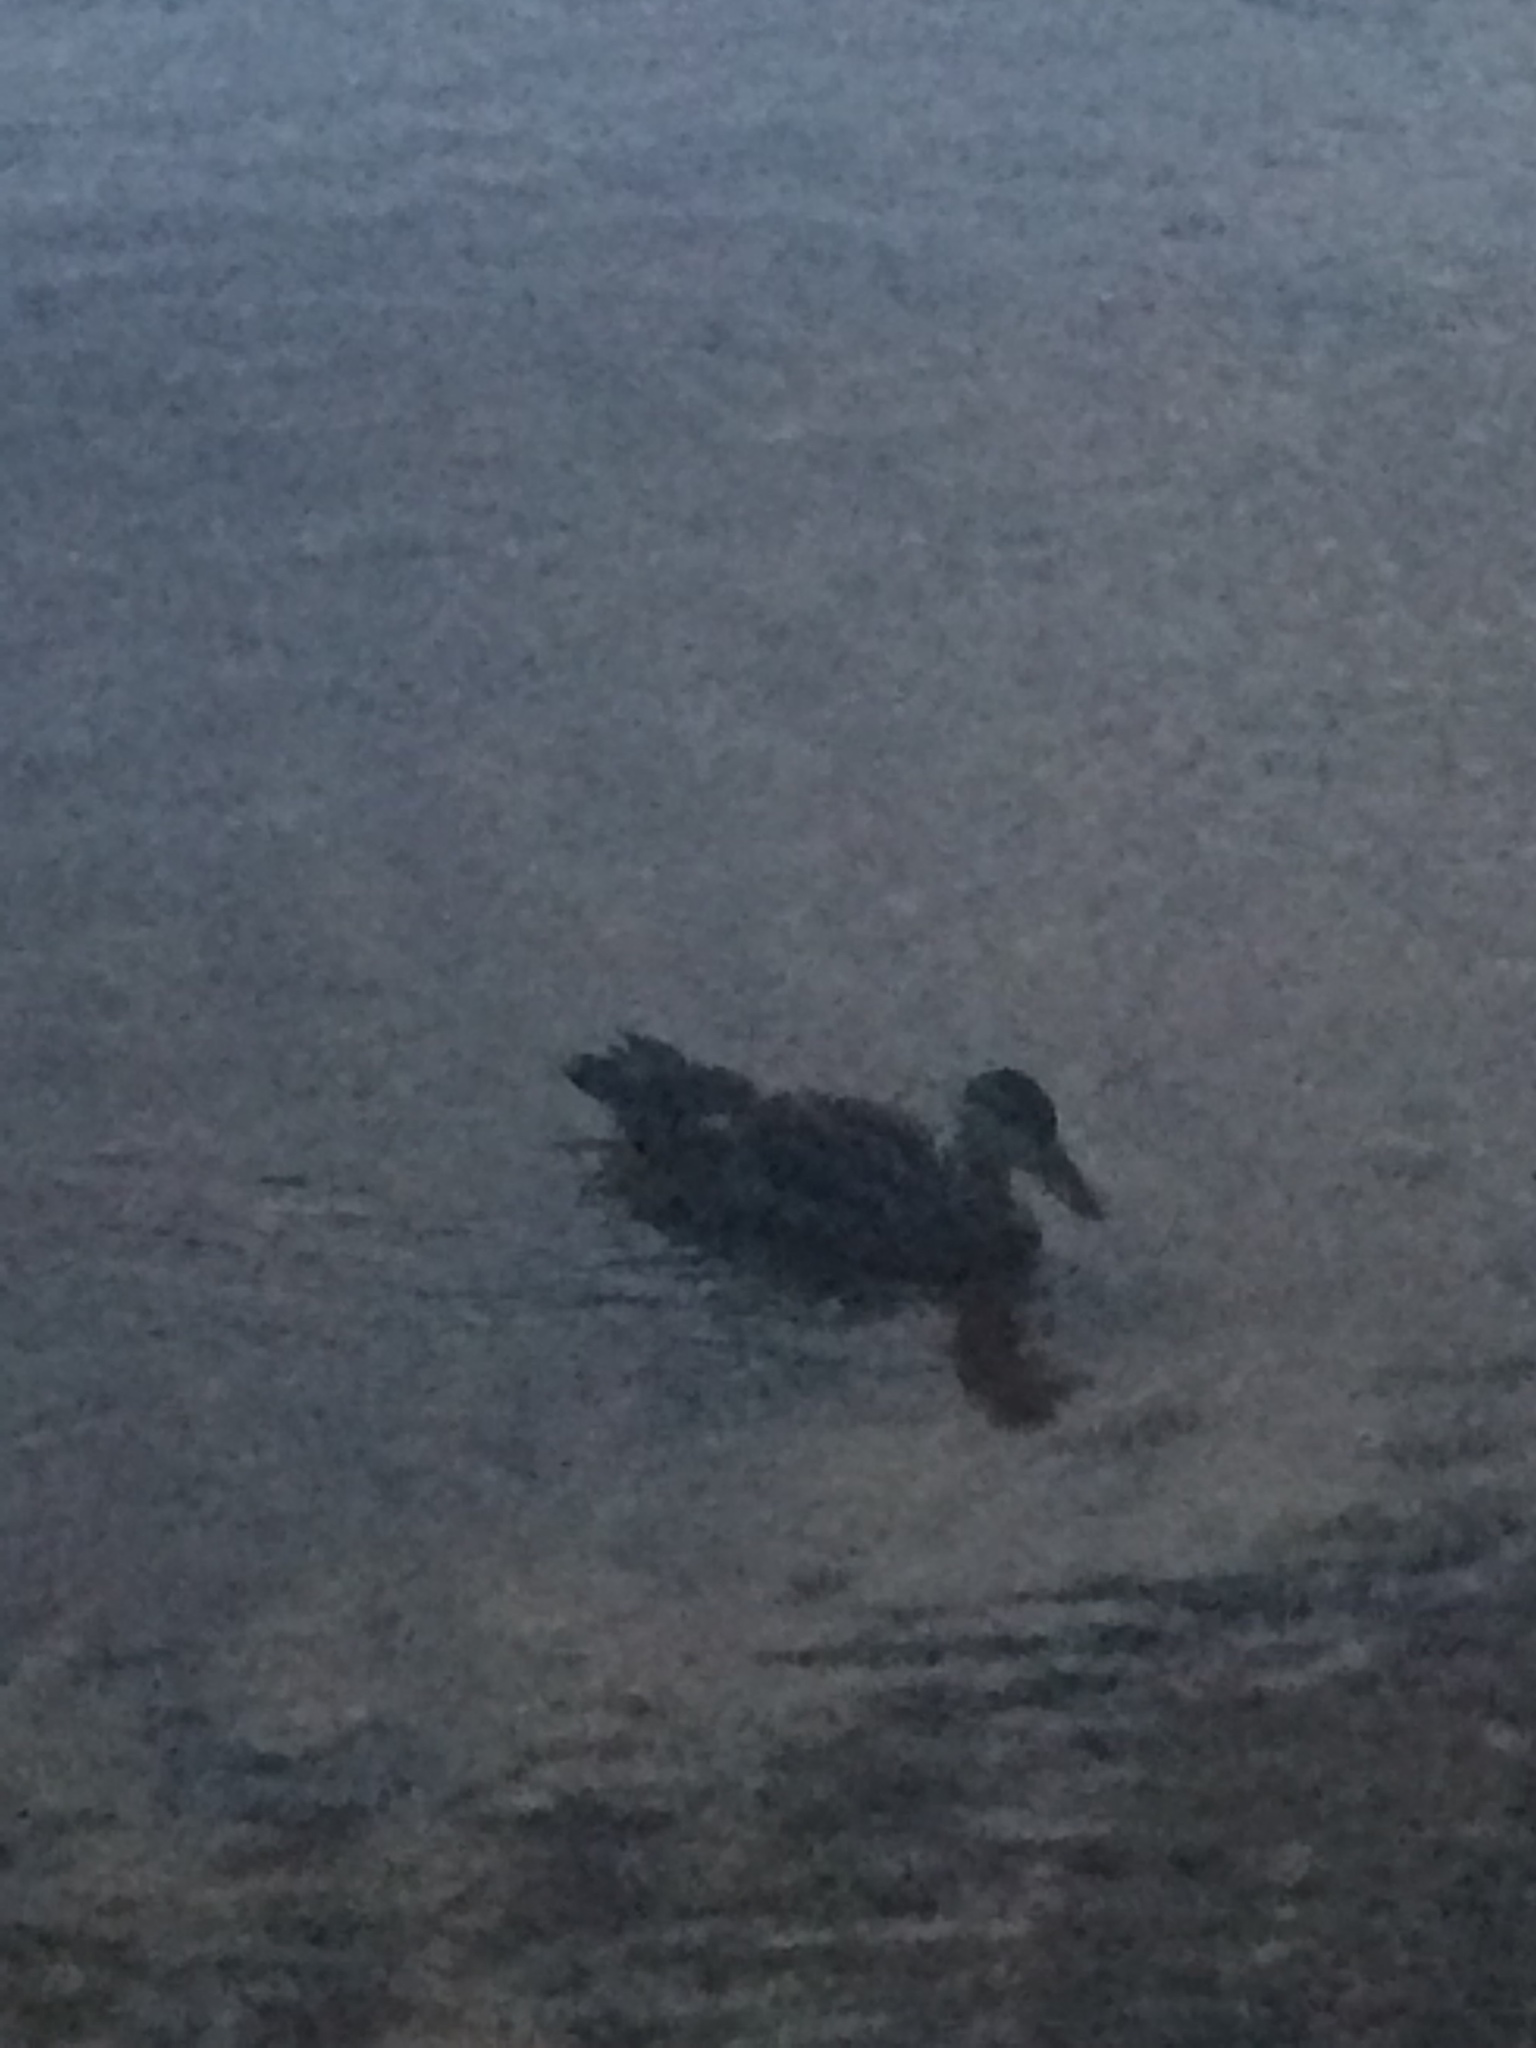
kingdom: Animalia
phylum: Chordata
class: Aves
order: Anseriformes
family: Anatidae
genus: Anas
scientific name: Anas rubripes
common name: American black duck
